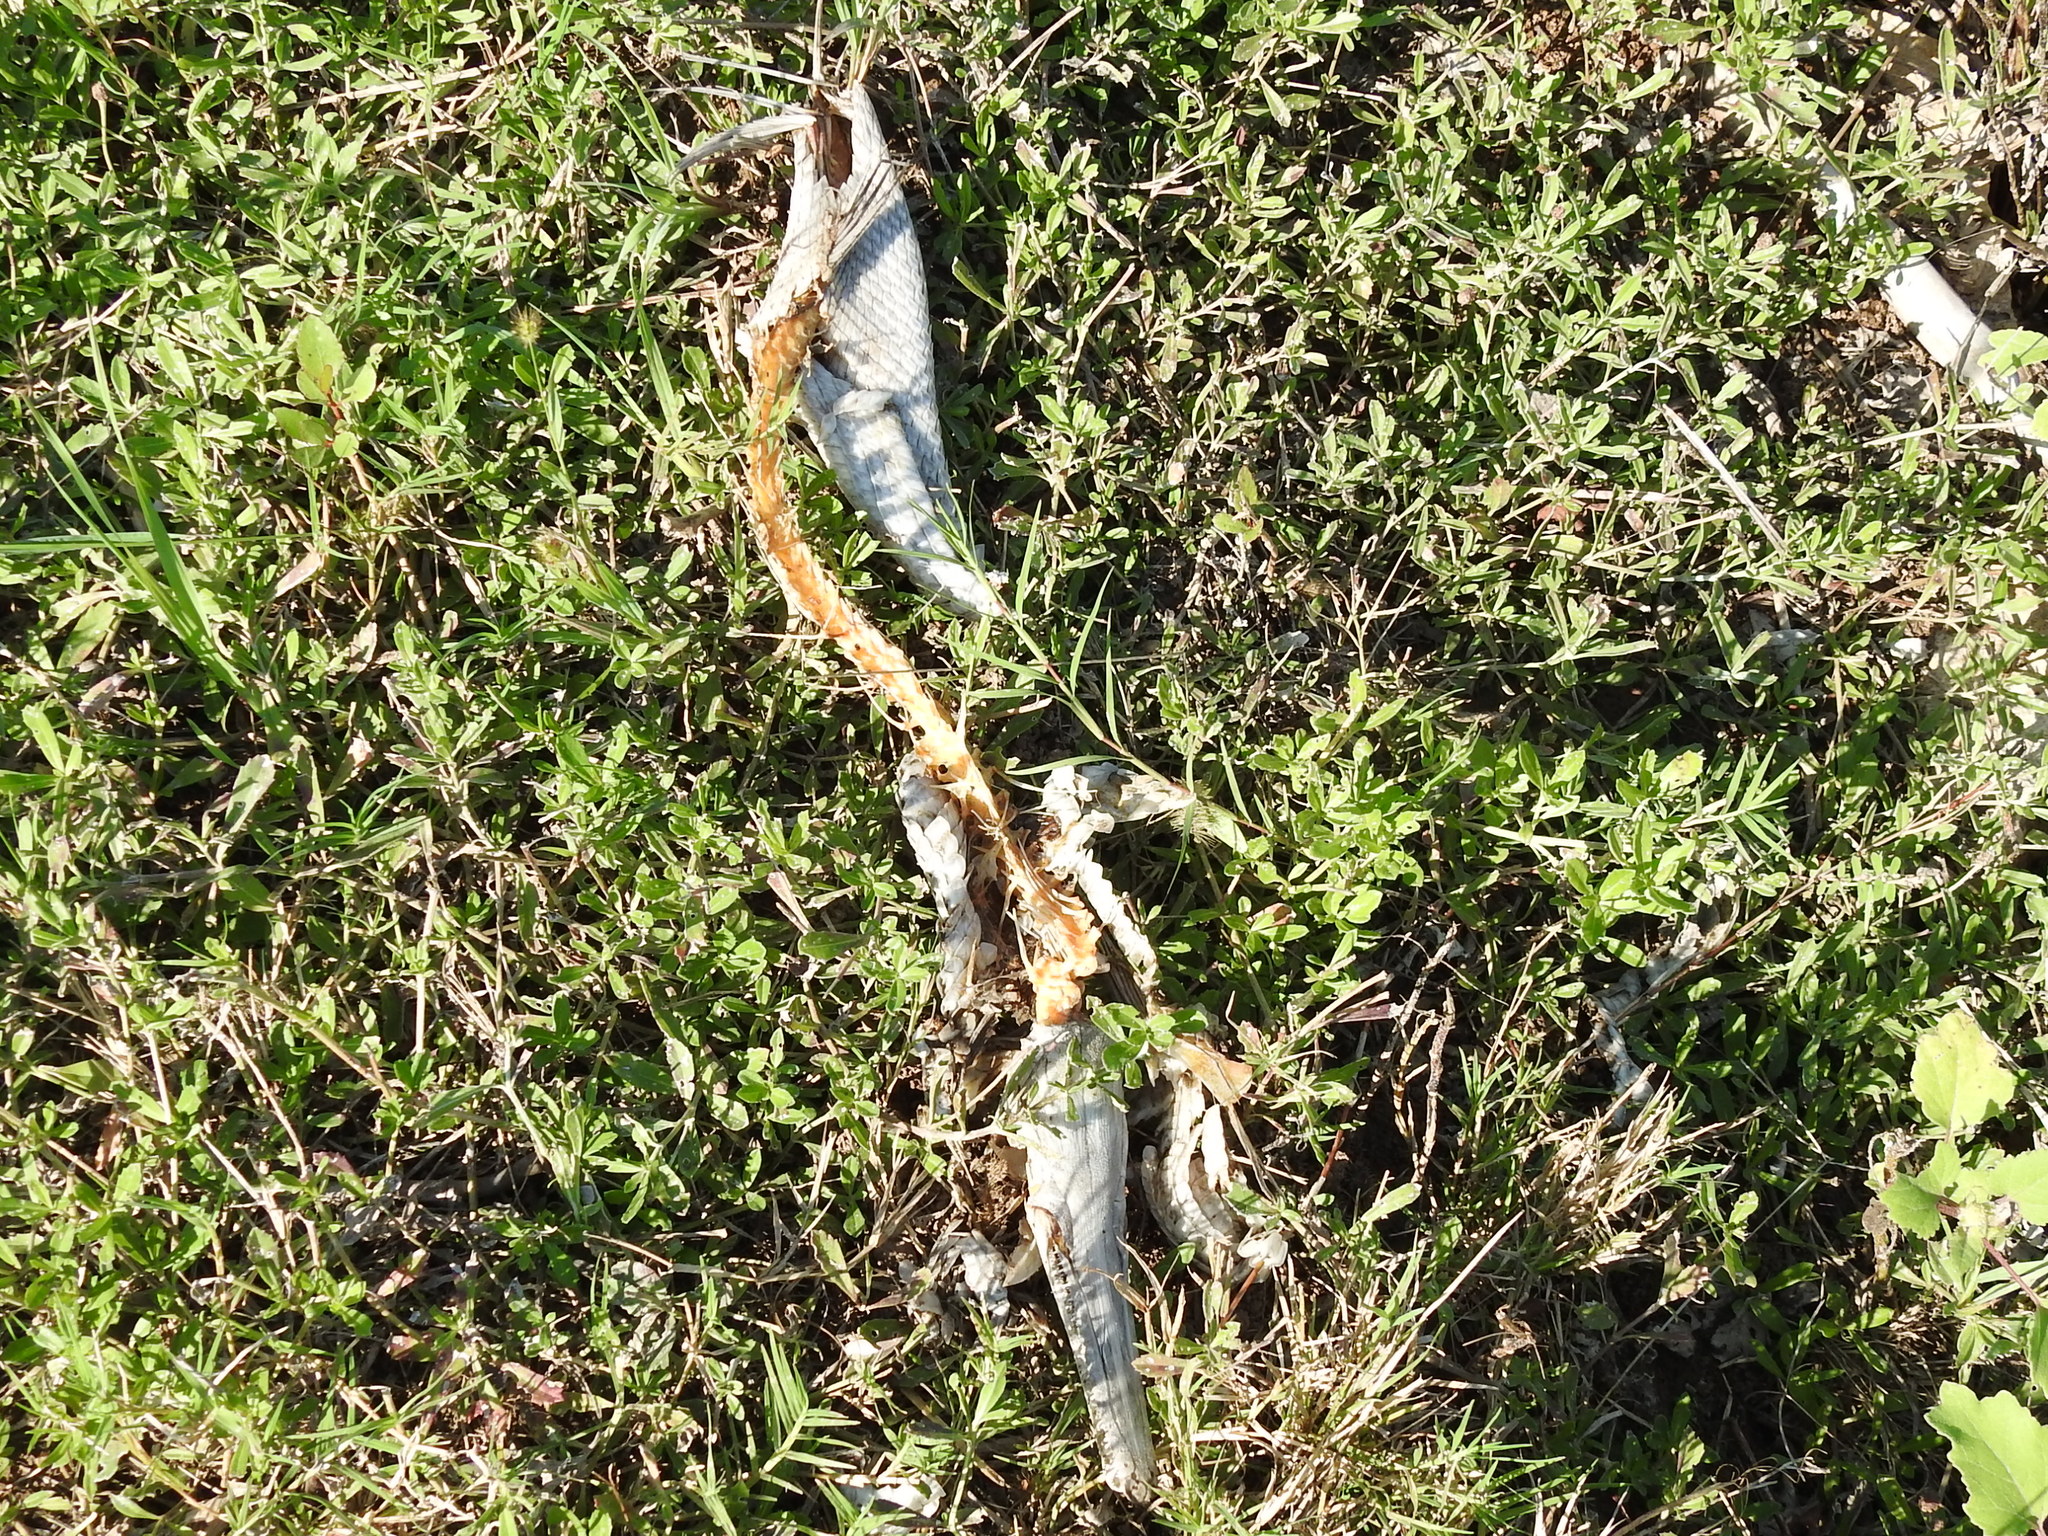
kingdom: Animalia
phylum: Chordata
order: Lepisosteiformes
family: Lepisosteidae
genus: Lepisosteus
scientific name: Lepisosteus oculatus
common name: Spotted gar
